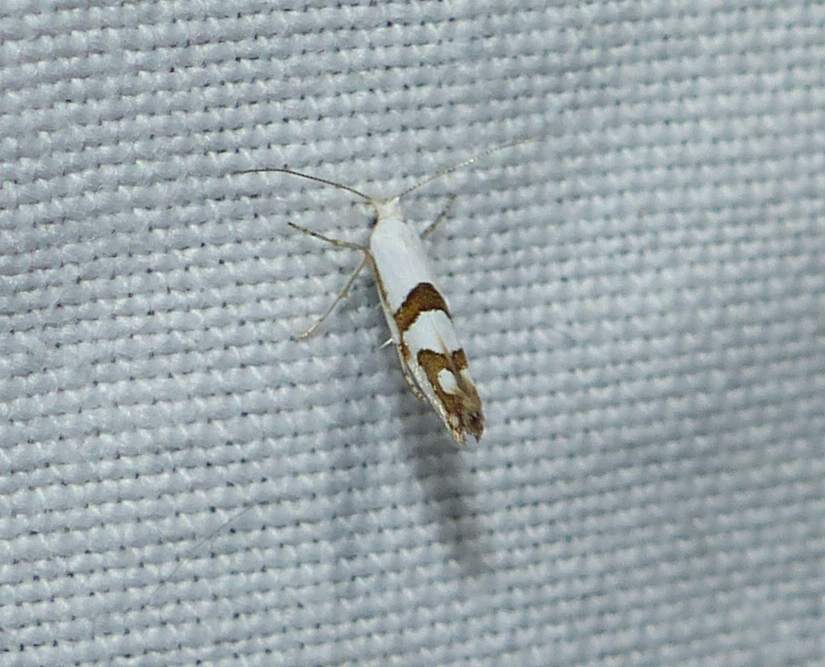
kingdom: Animalia
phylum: Arthropoda
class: Insecta
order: Lepidoptera
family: Argyresthiidae
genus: Argyresthia
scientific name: Argyresthia oreasella
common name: Cherry shoot borer moth
